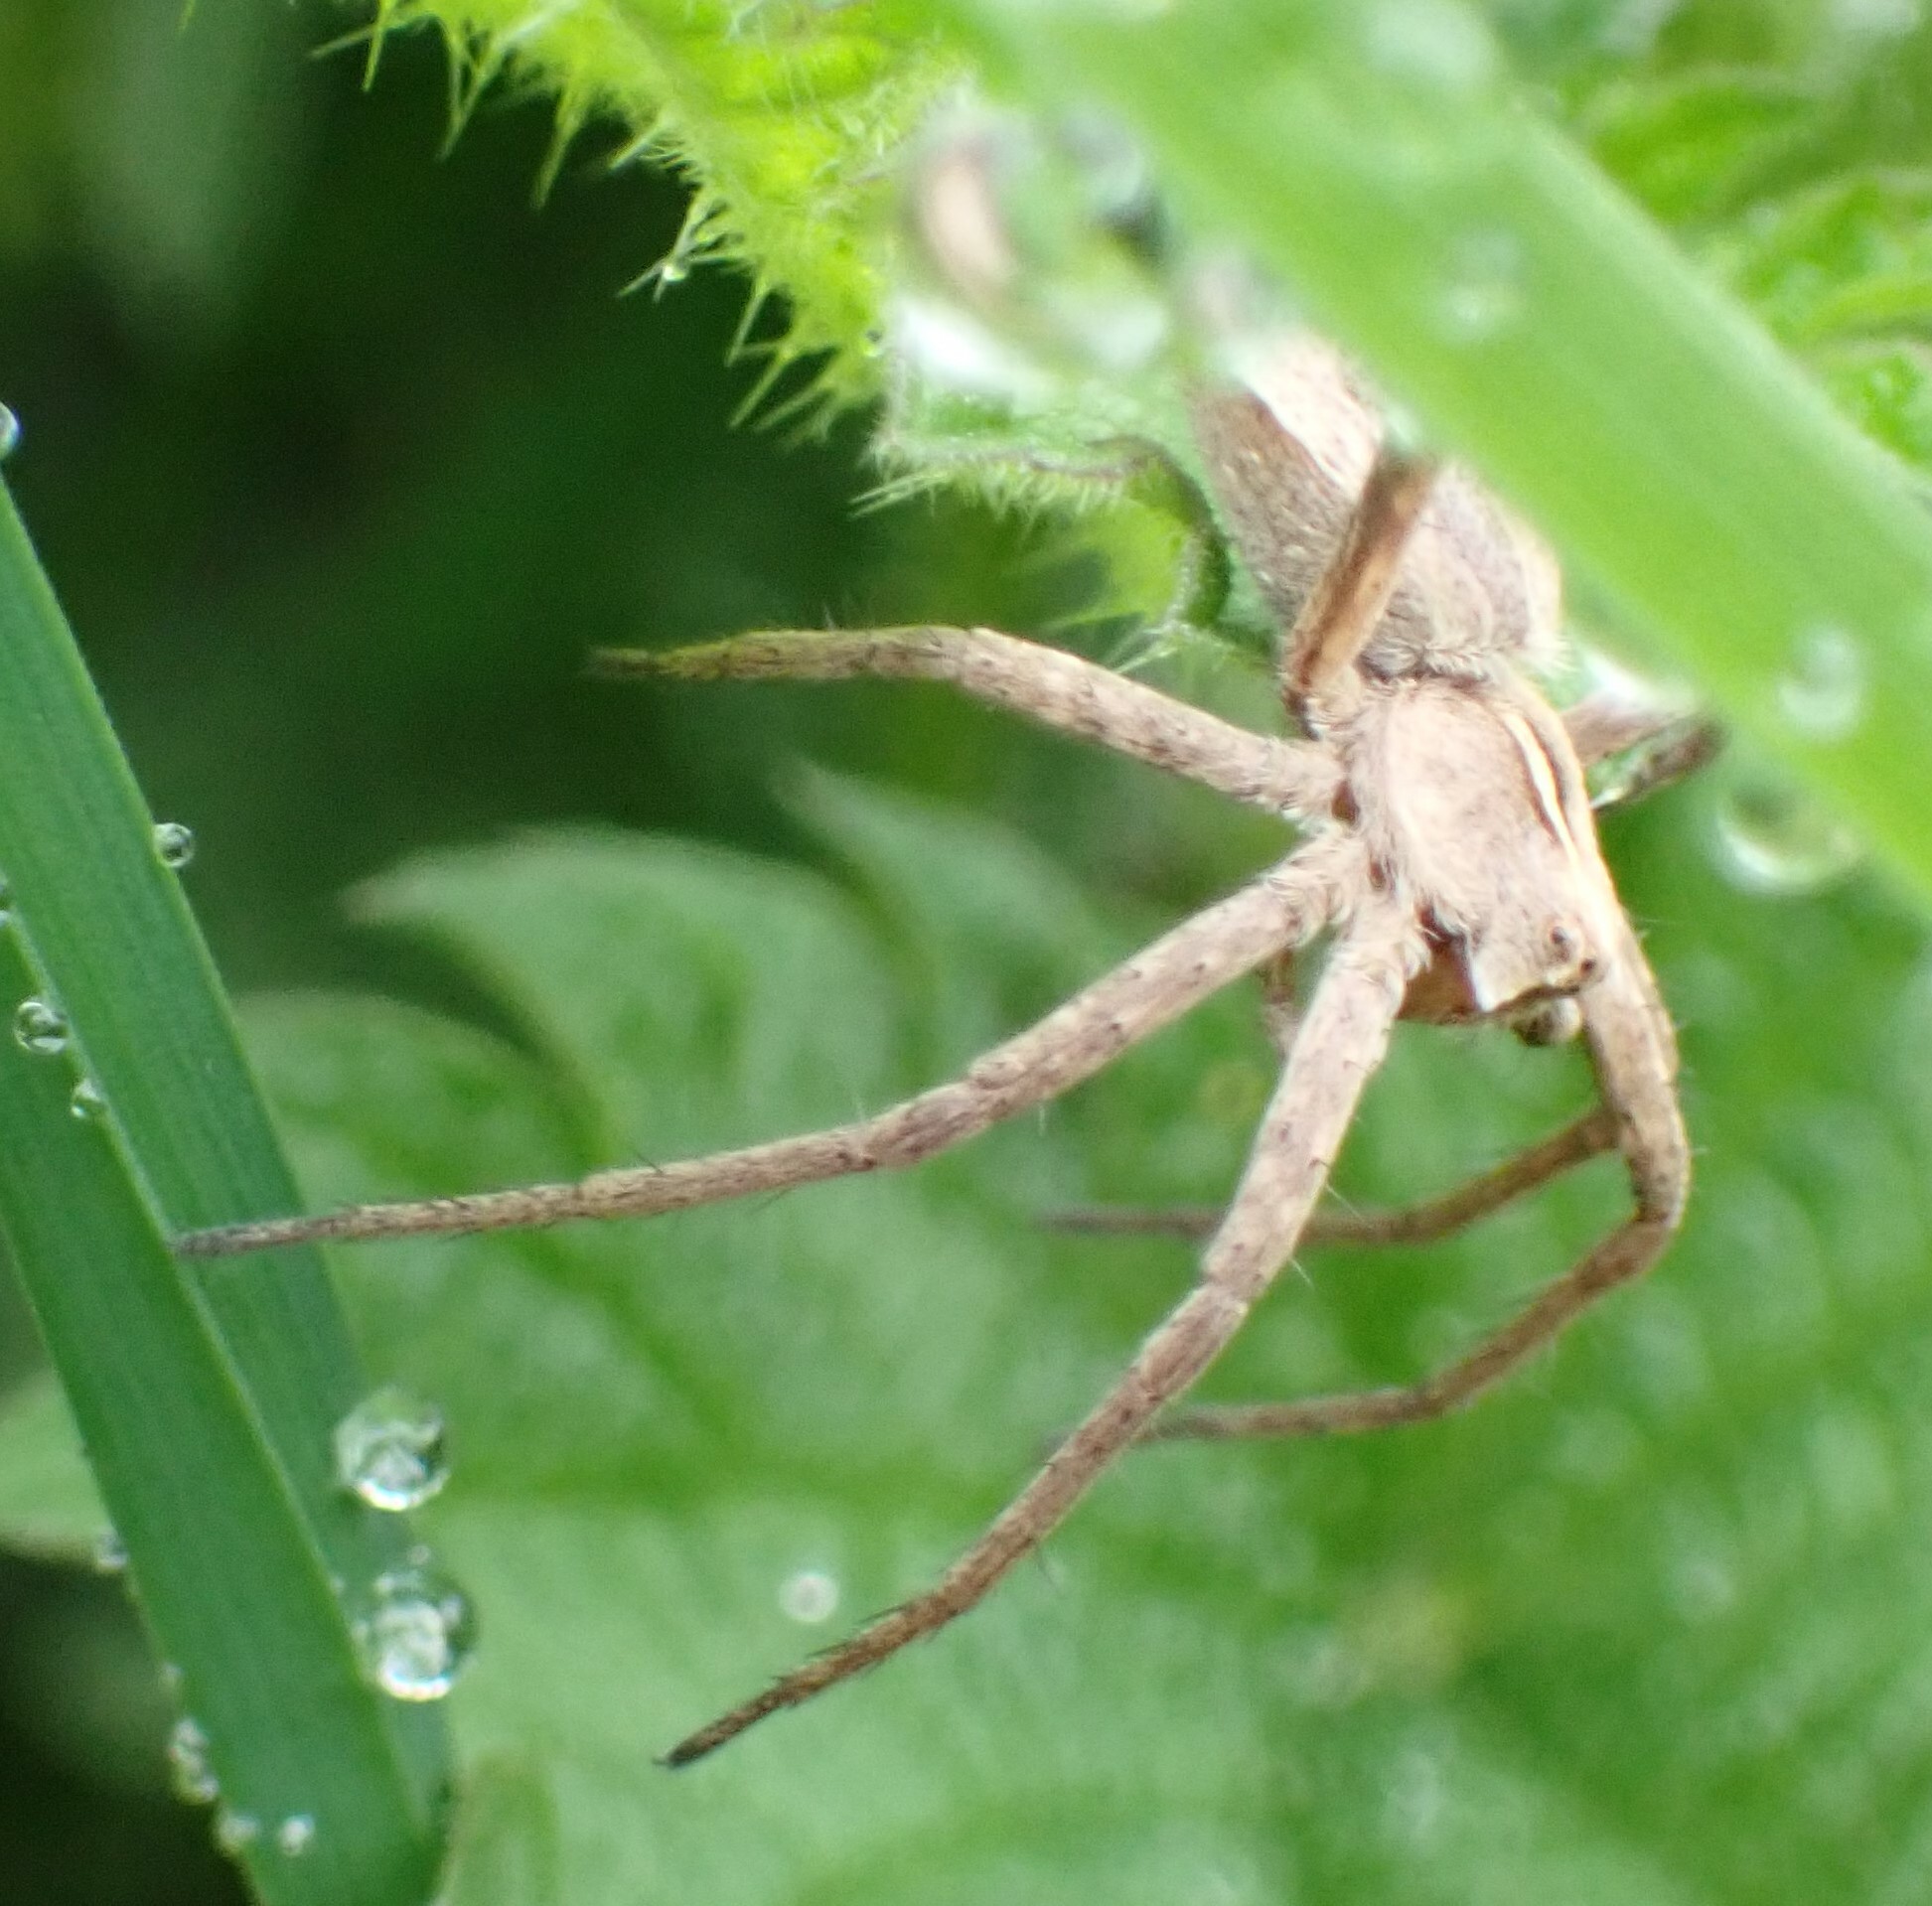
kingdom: Animalia
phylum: Arthropoda
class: Arachnida
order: Araneae
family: Pisauridae
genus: Pisaura
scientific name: Pisaura mirabilis
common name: Tent spider
